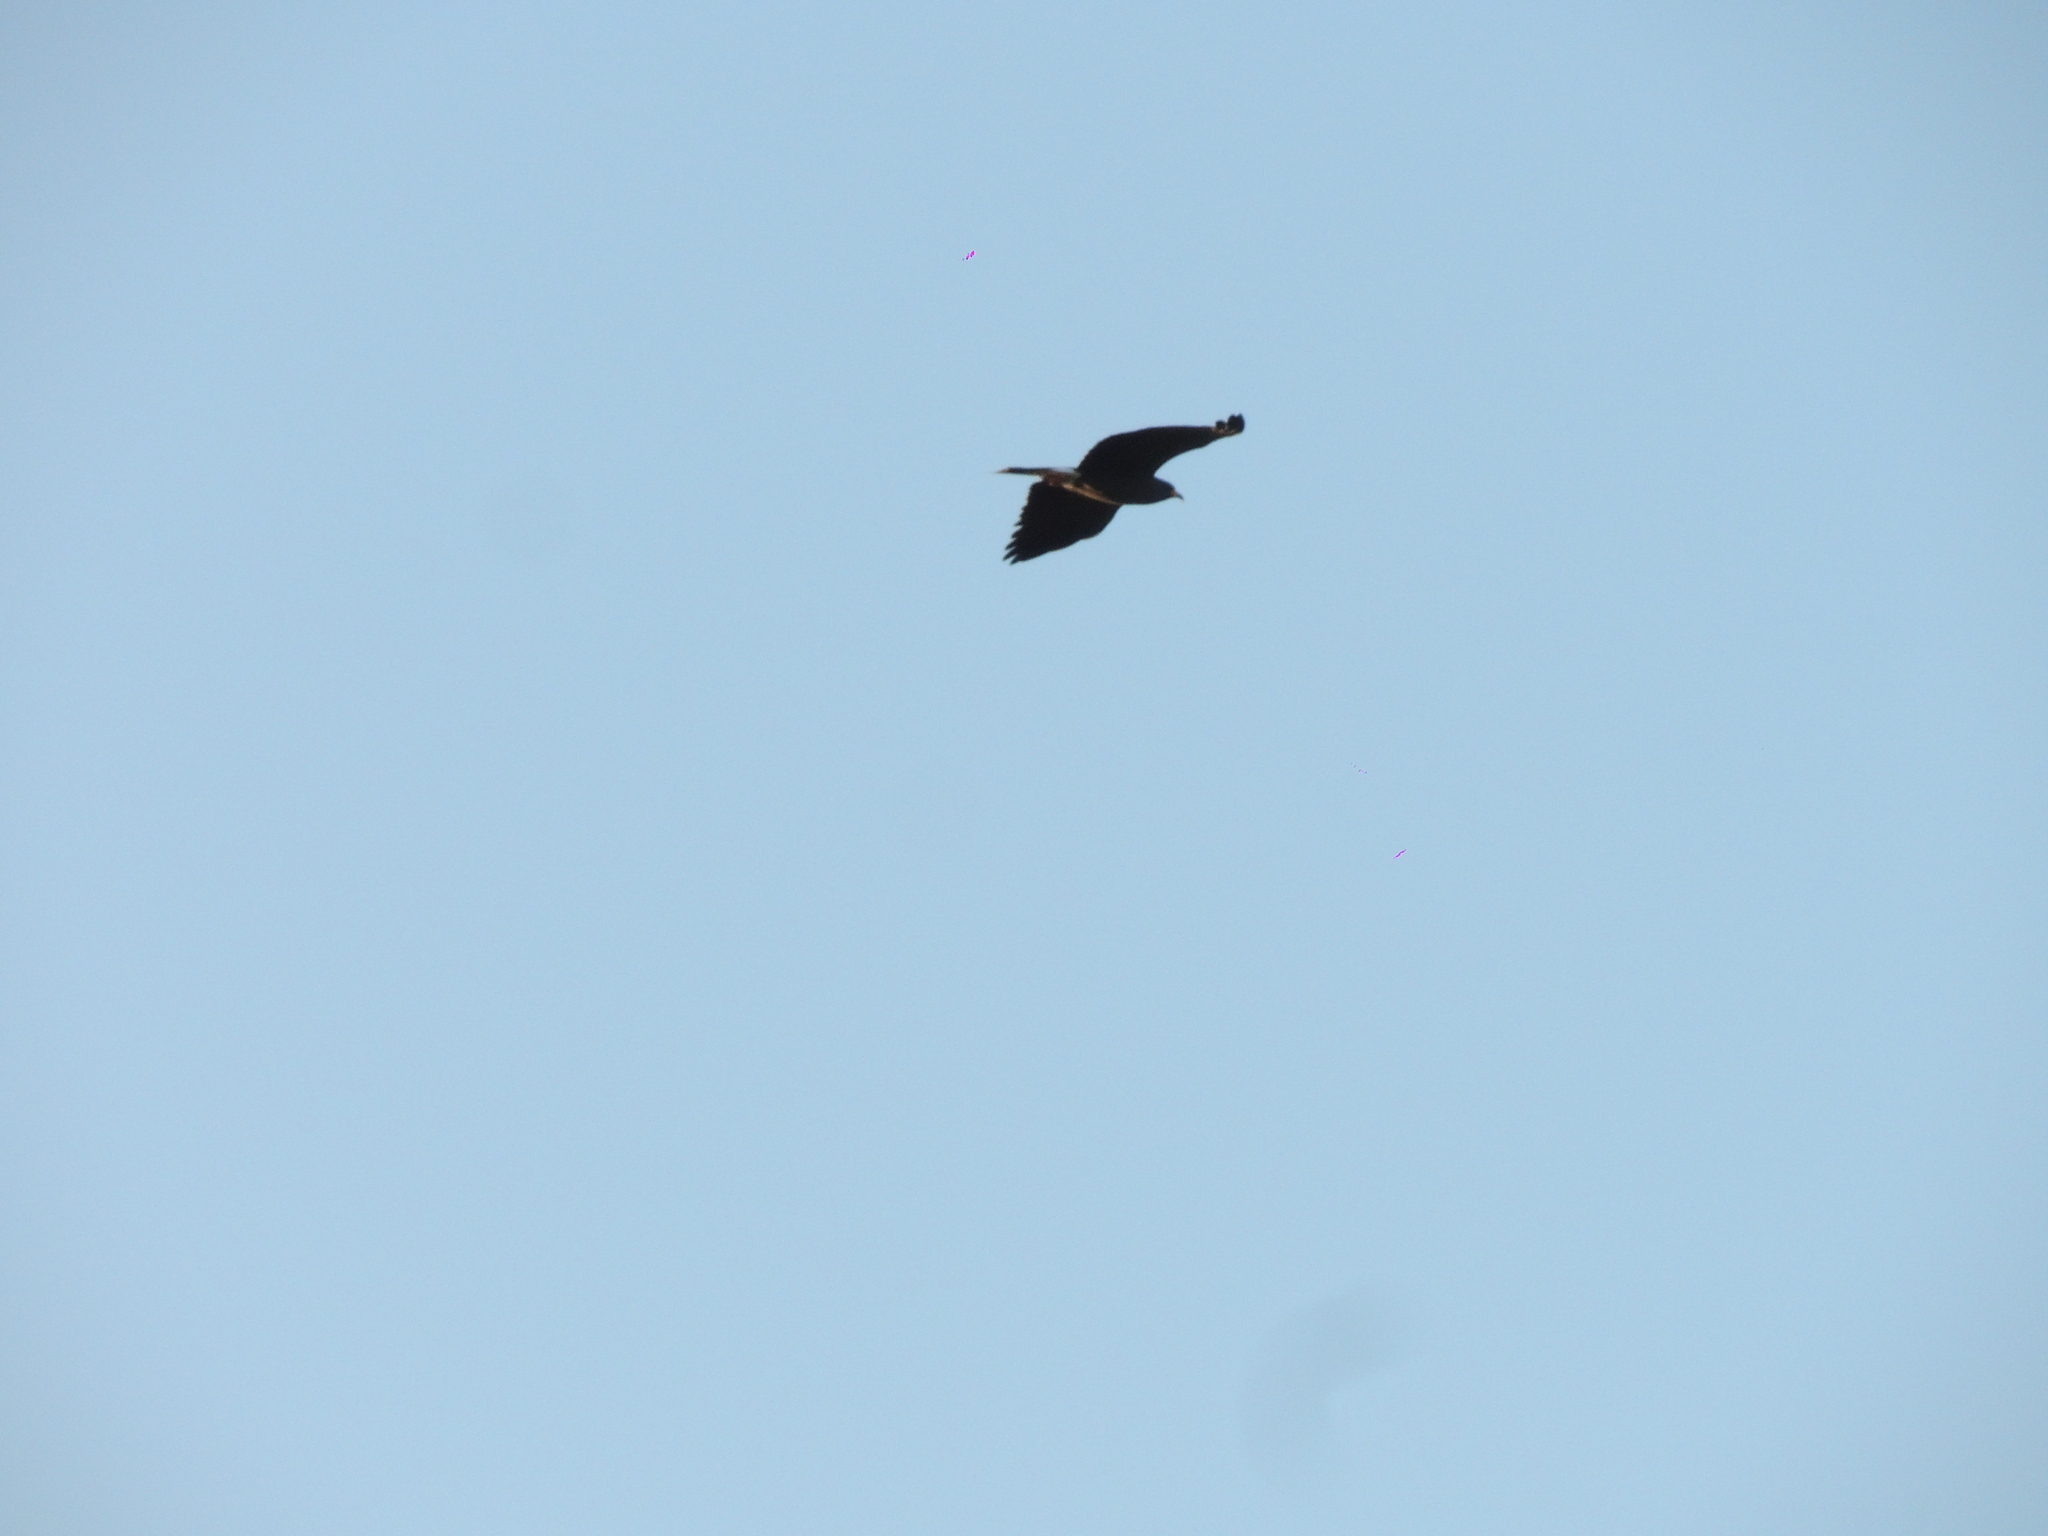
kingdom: Animalia
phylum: Chordata
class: Aves
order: Accipitriformes
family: Accipitridae
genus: Rostrhamus
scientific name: Rostrhamus sociabilis
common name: Snail kite
